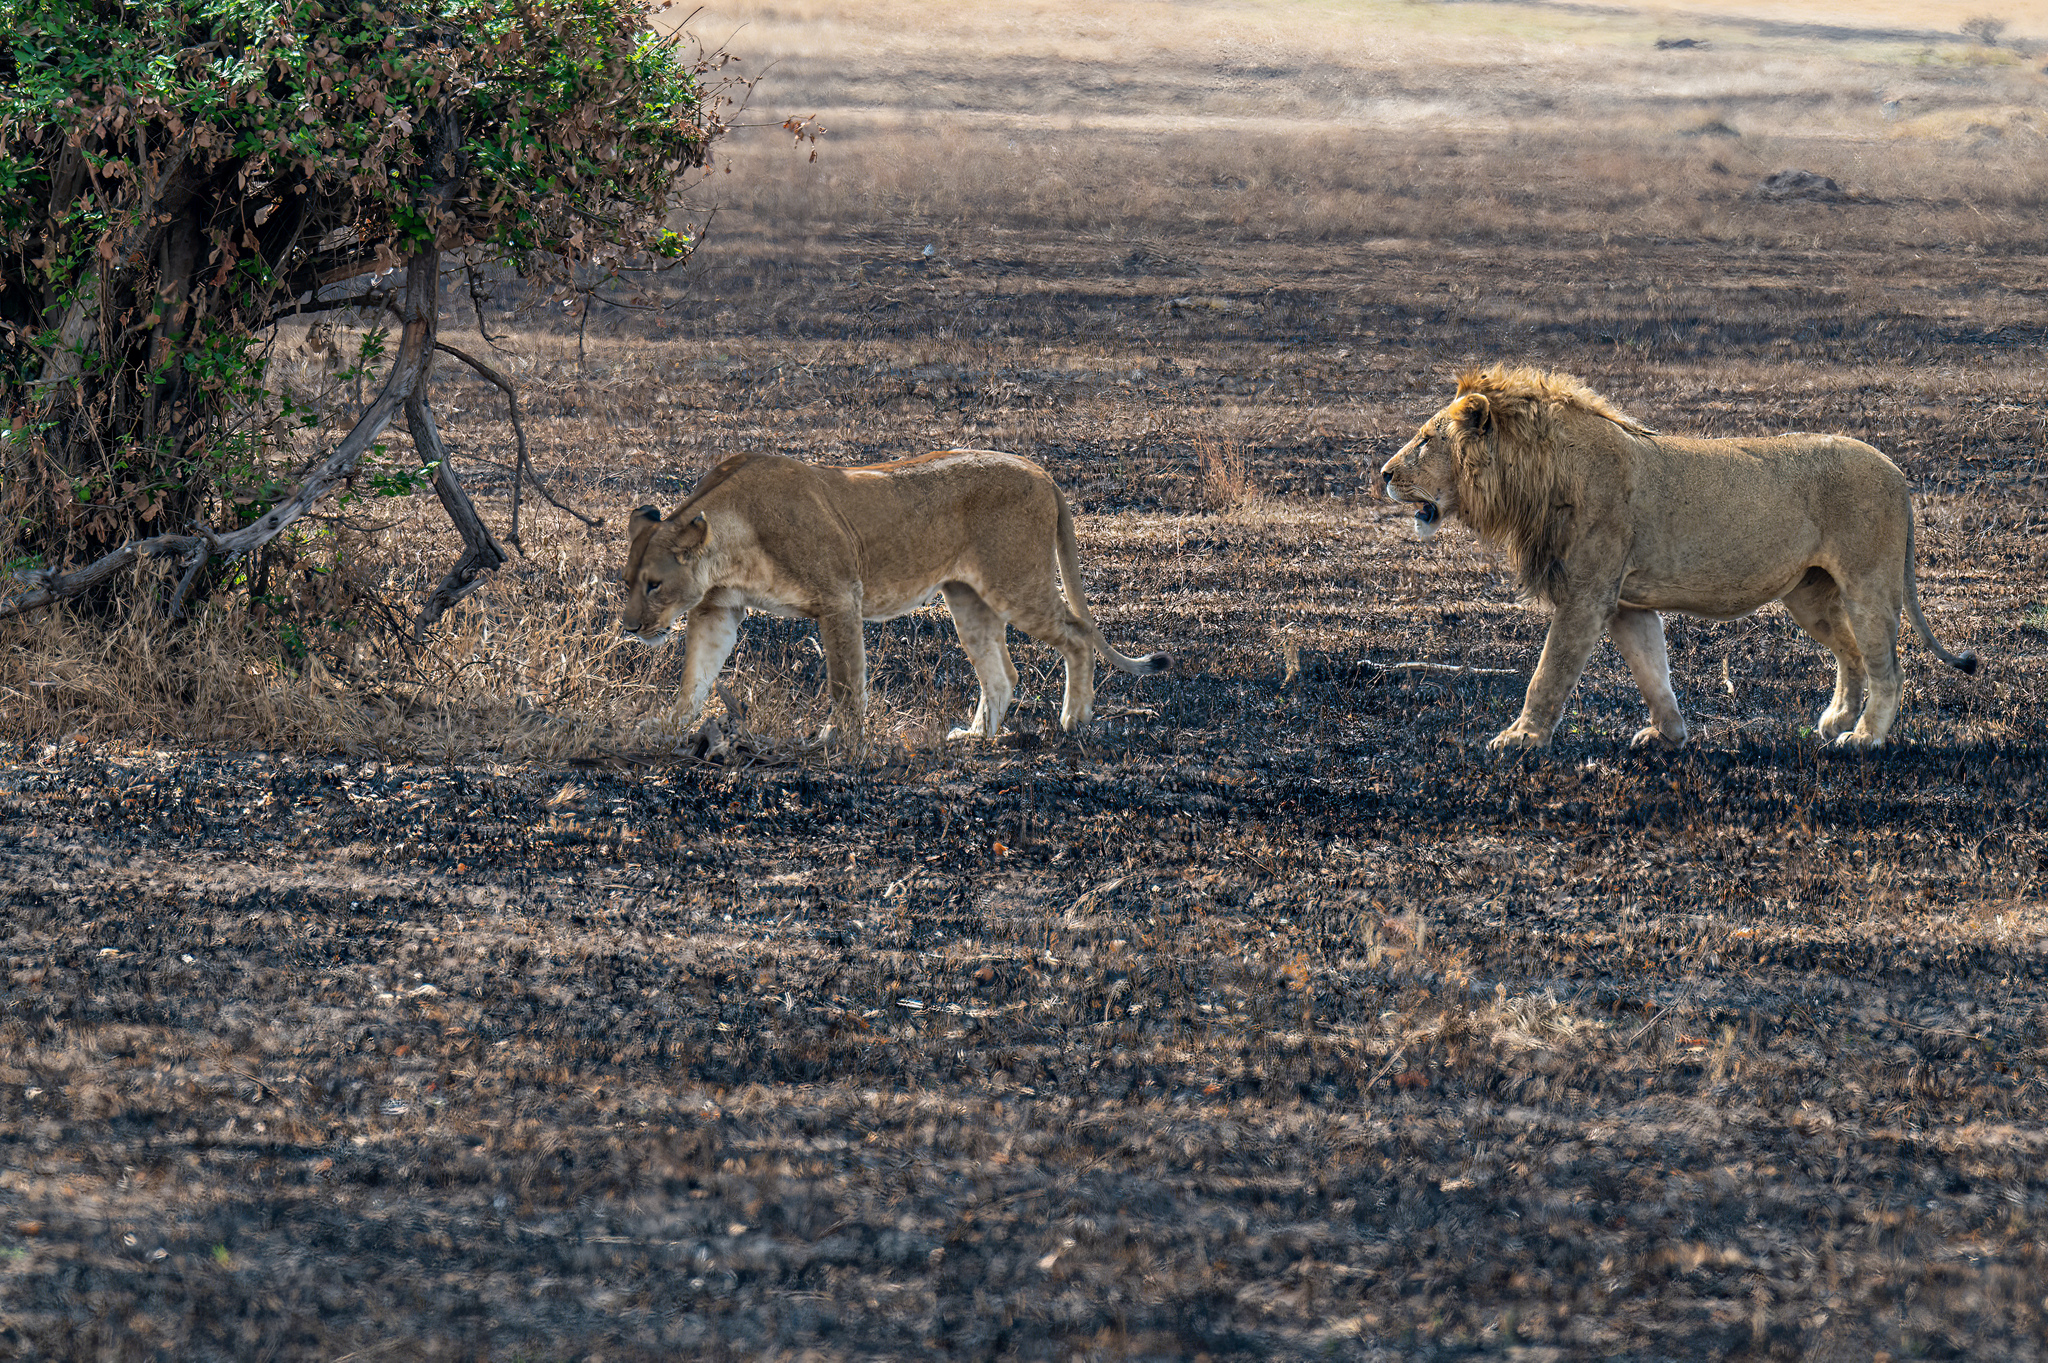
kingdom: Animalia
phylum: Chordata
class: Mammalia
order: Carnivora
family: Felidae
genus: Panthera
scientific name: Panthera leo
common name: Lion
